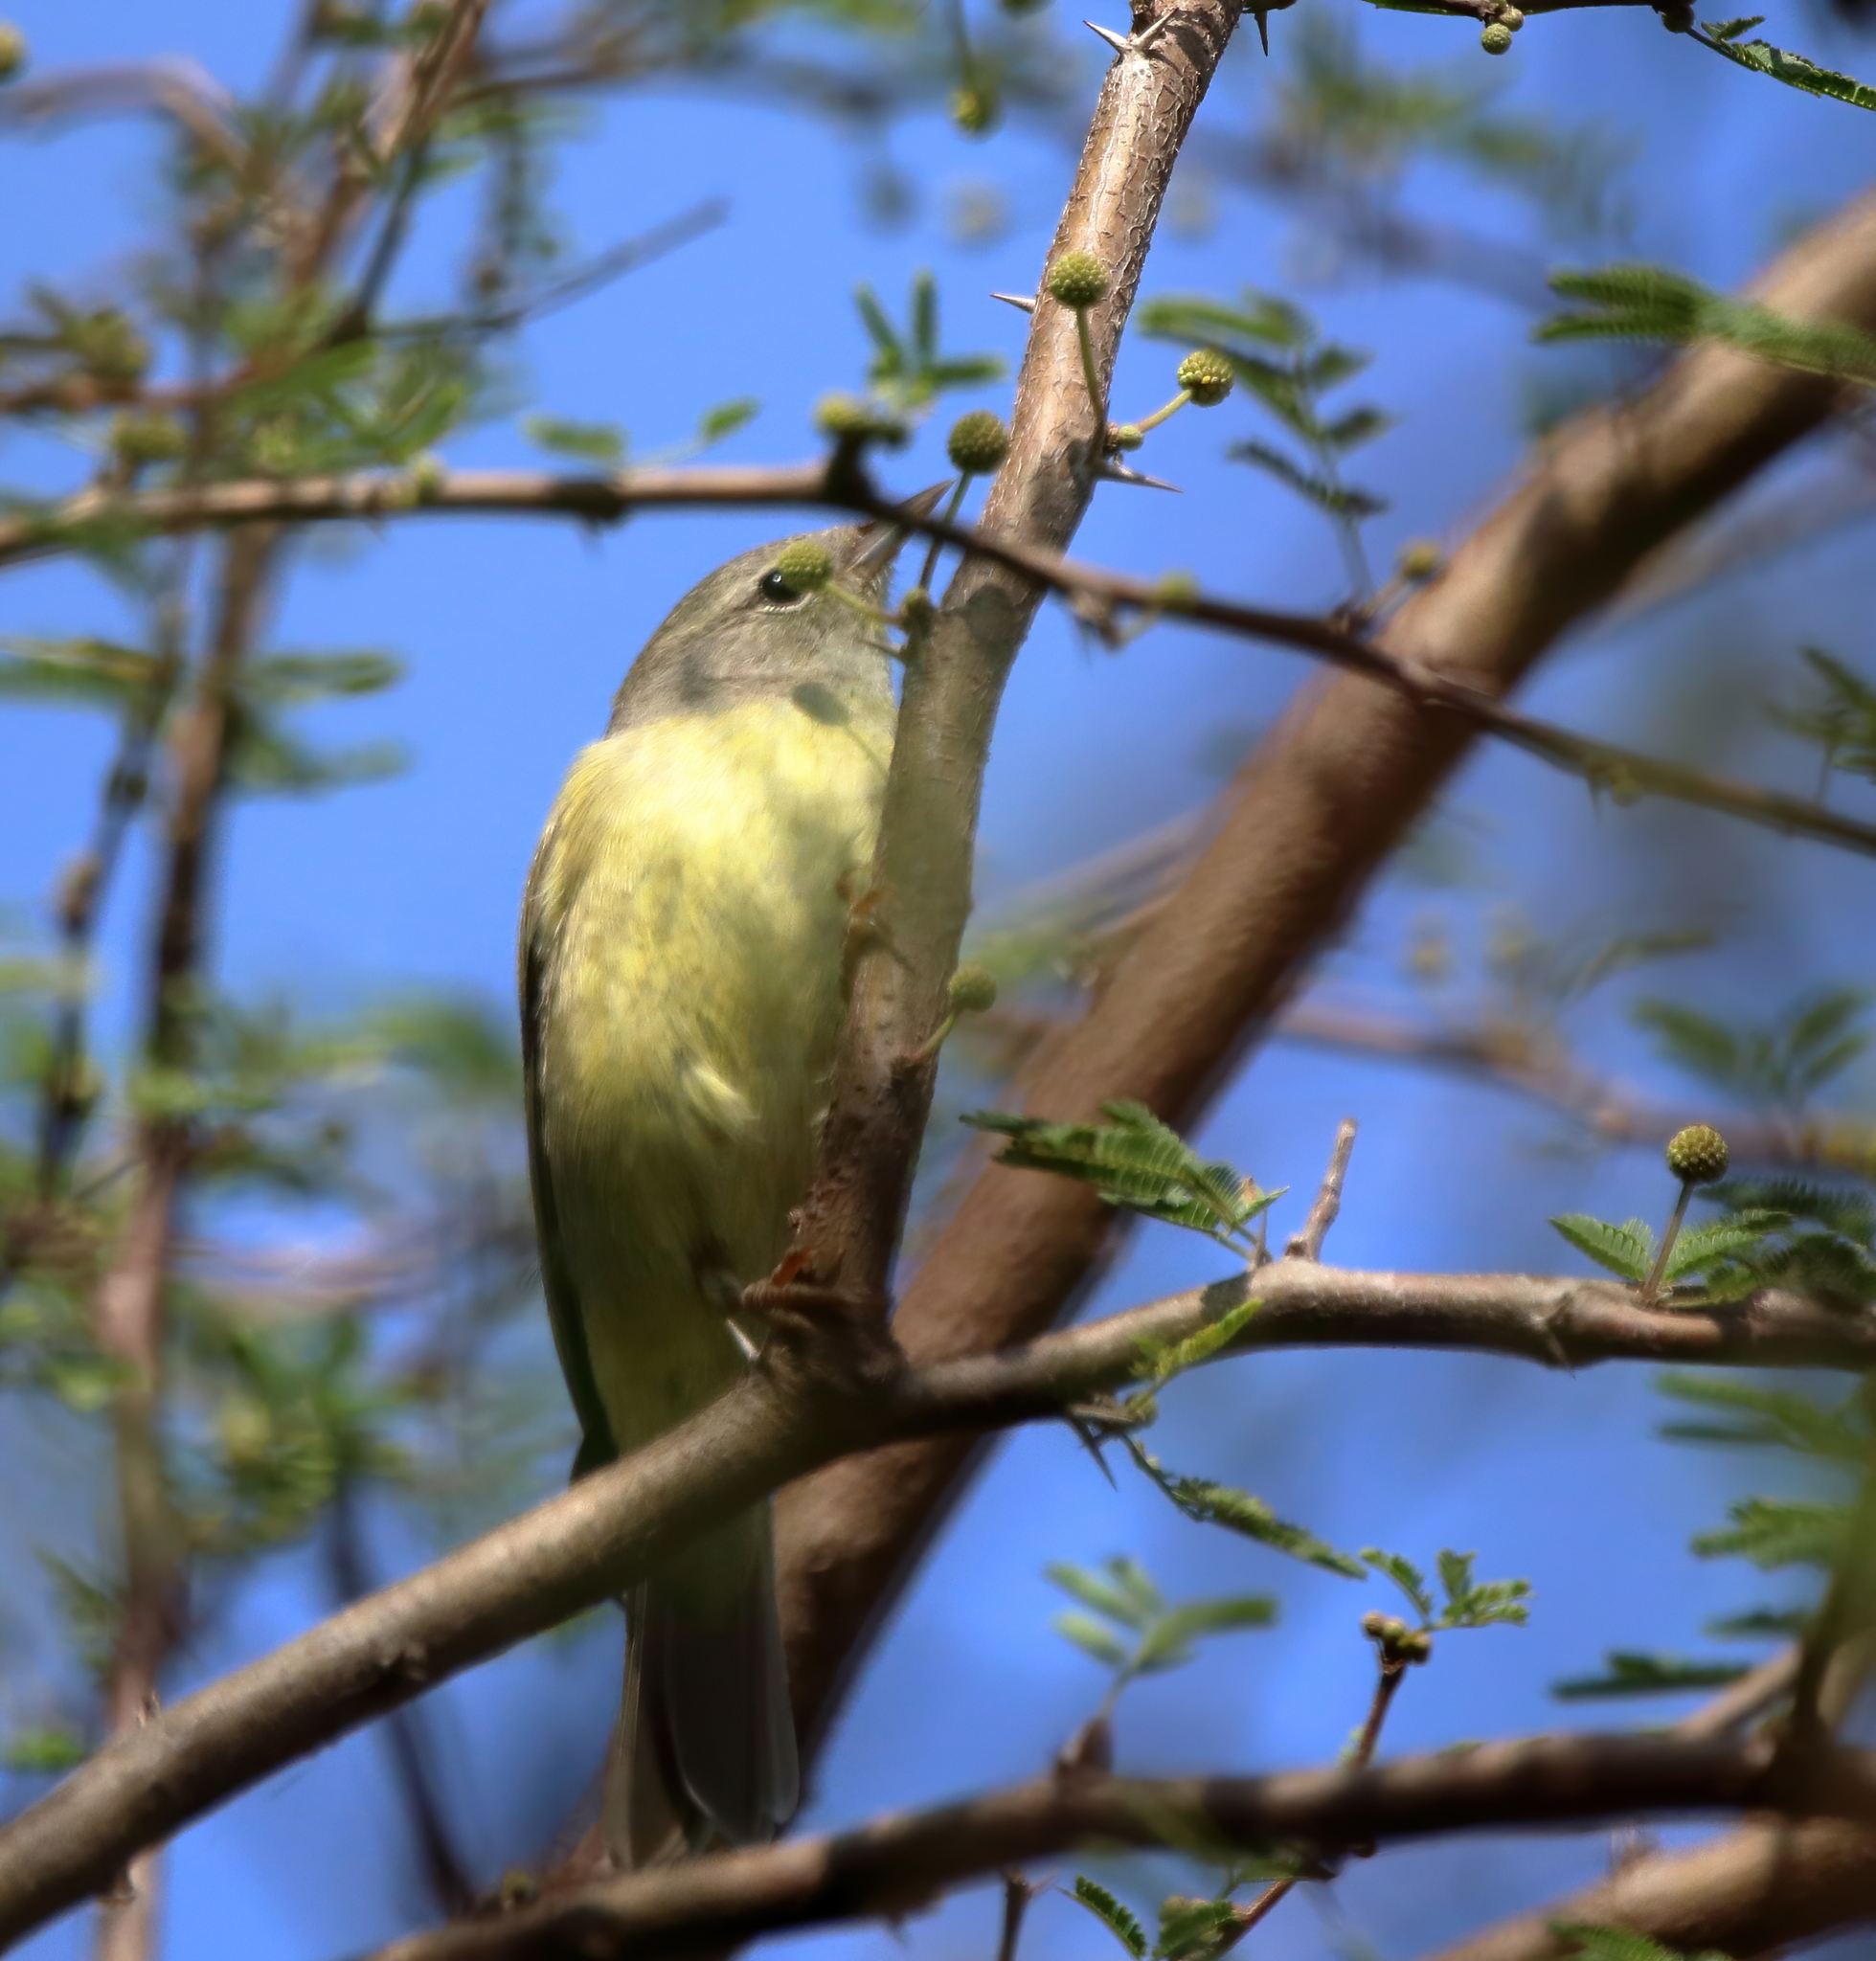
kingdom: Animalia
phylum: Chordata
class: Aves
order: Passeriformes
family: Parulidae
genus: Leiothlypis
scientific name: Leiothlypis celata
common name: Orange-crowned warbler
